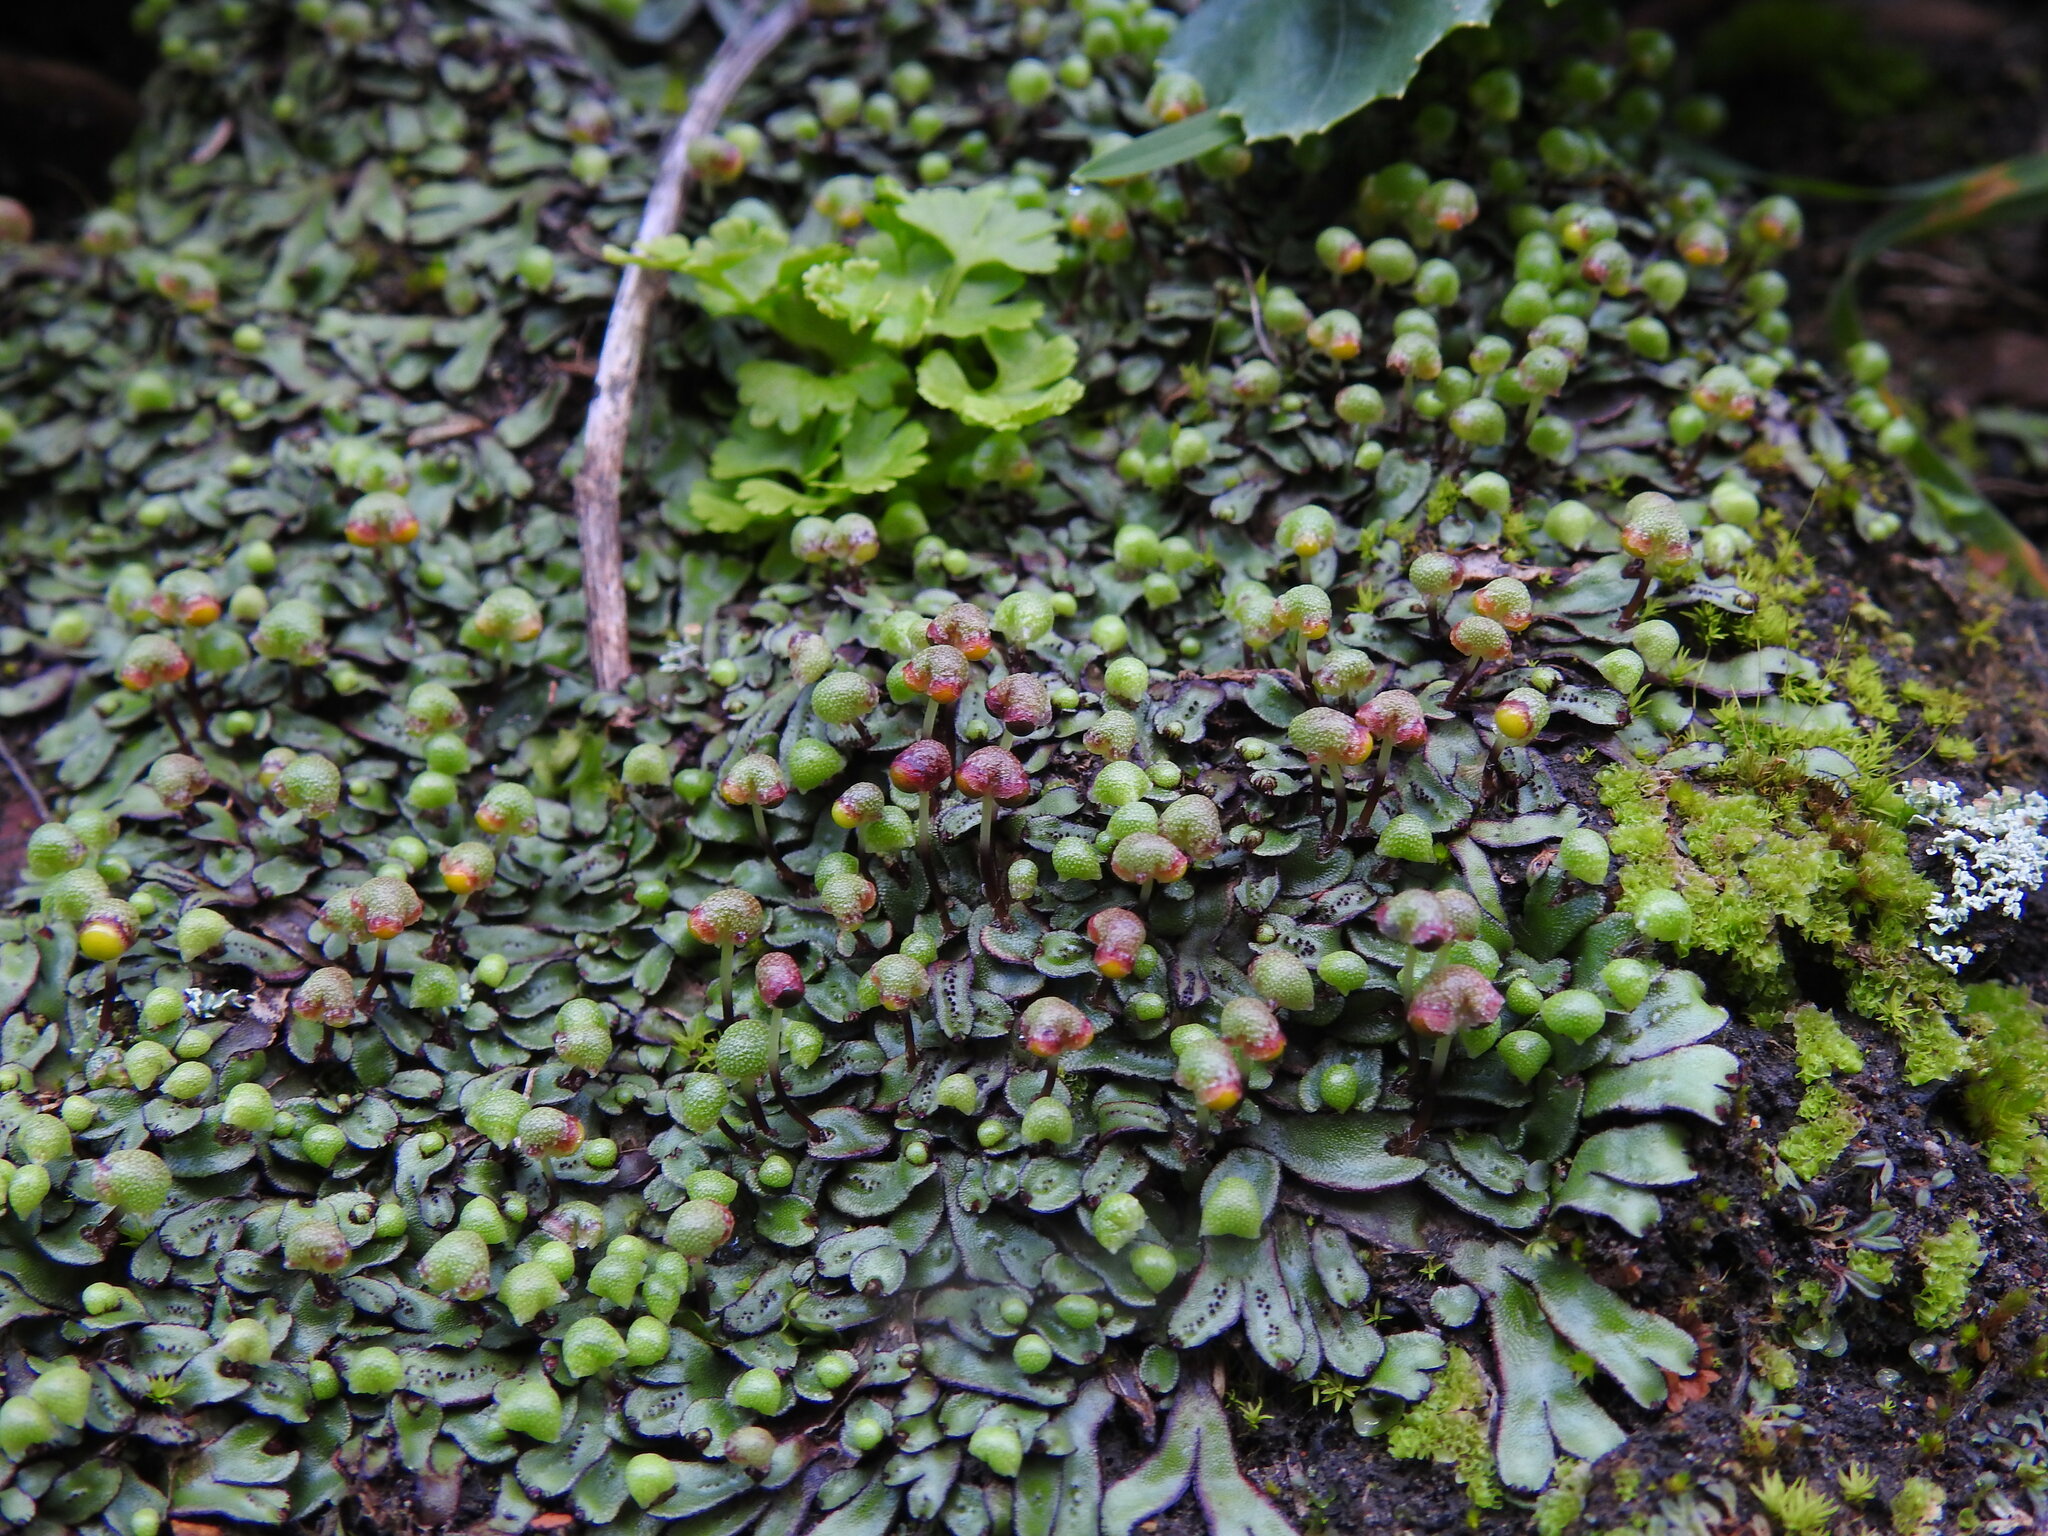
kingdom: Plantae
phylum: Marchantiophyta
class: Marchantiopsida
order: Marchantiales
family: Aytoniaceae
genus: Mannia
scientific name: Mannia androgyna
